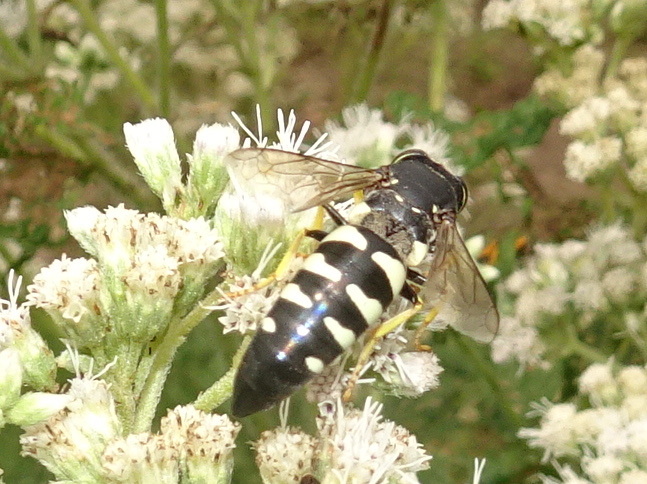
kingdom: Animalia
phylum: Arthropoda
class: Insecta
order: Hymenoptera
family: Crabronidae
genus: Bicyrtes
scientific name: Bicyrtes quadrifasciatus
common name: Four-banded stink bug hunter wasp
